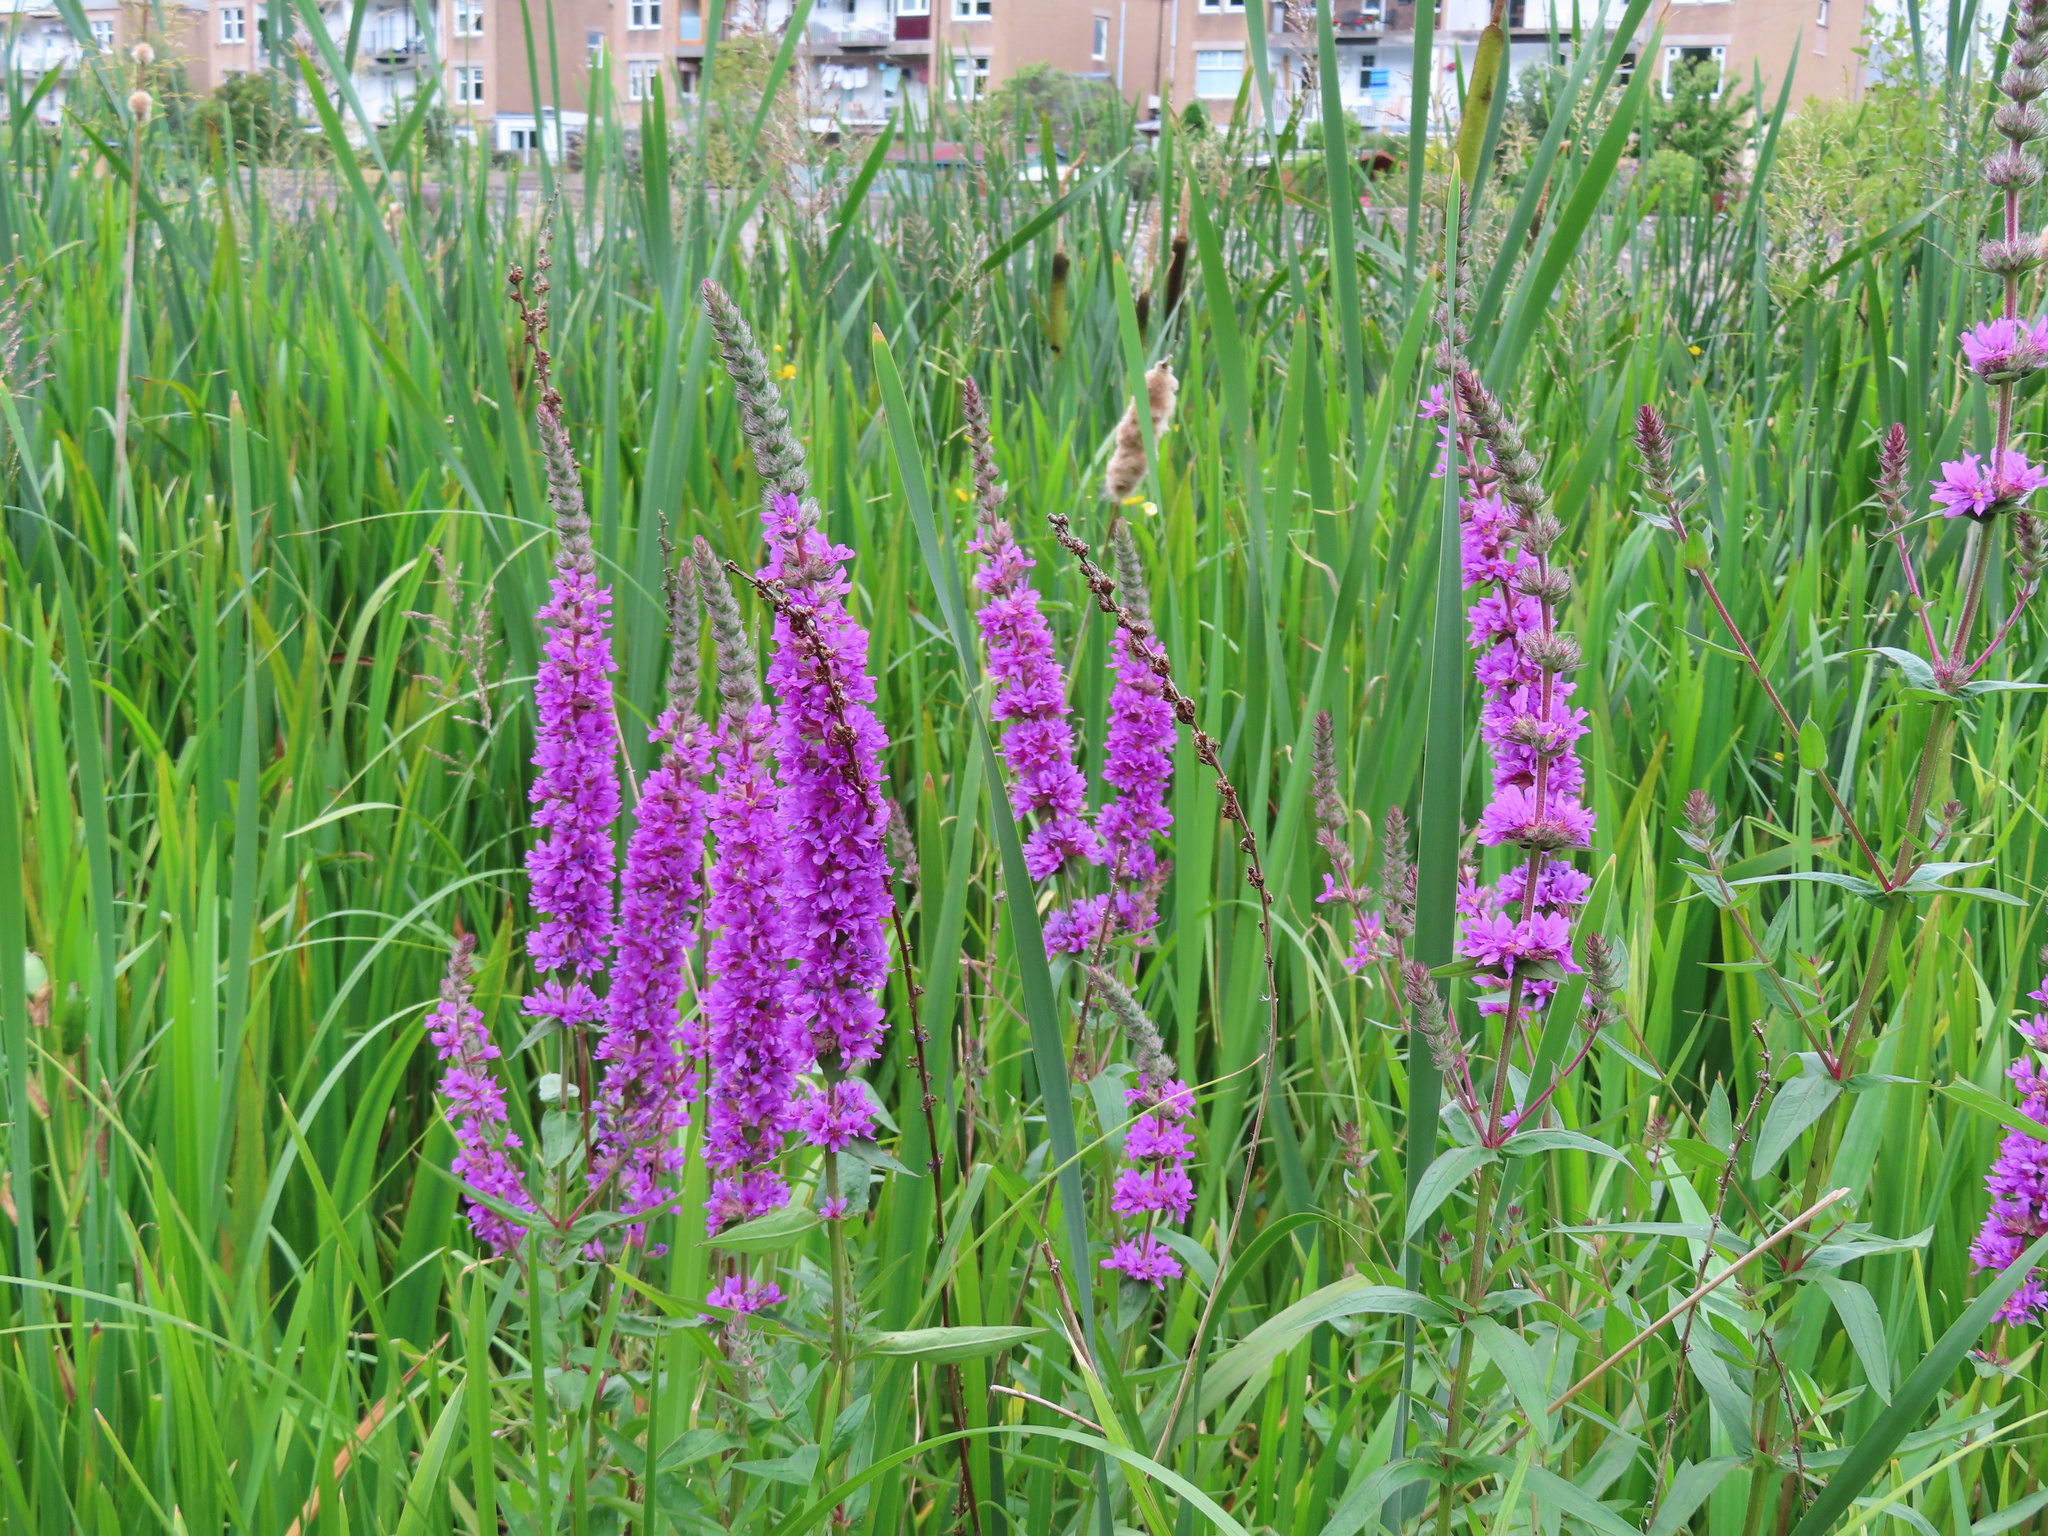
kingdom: Plantae
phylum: Tracheophyta
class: Magnoliopsida
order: Myrtales
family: Lythraceae
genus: Lythrum
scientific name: Lythrum salicaria
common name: Purple loosestrife
